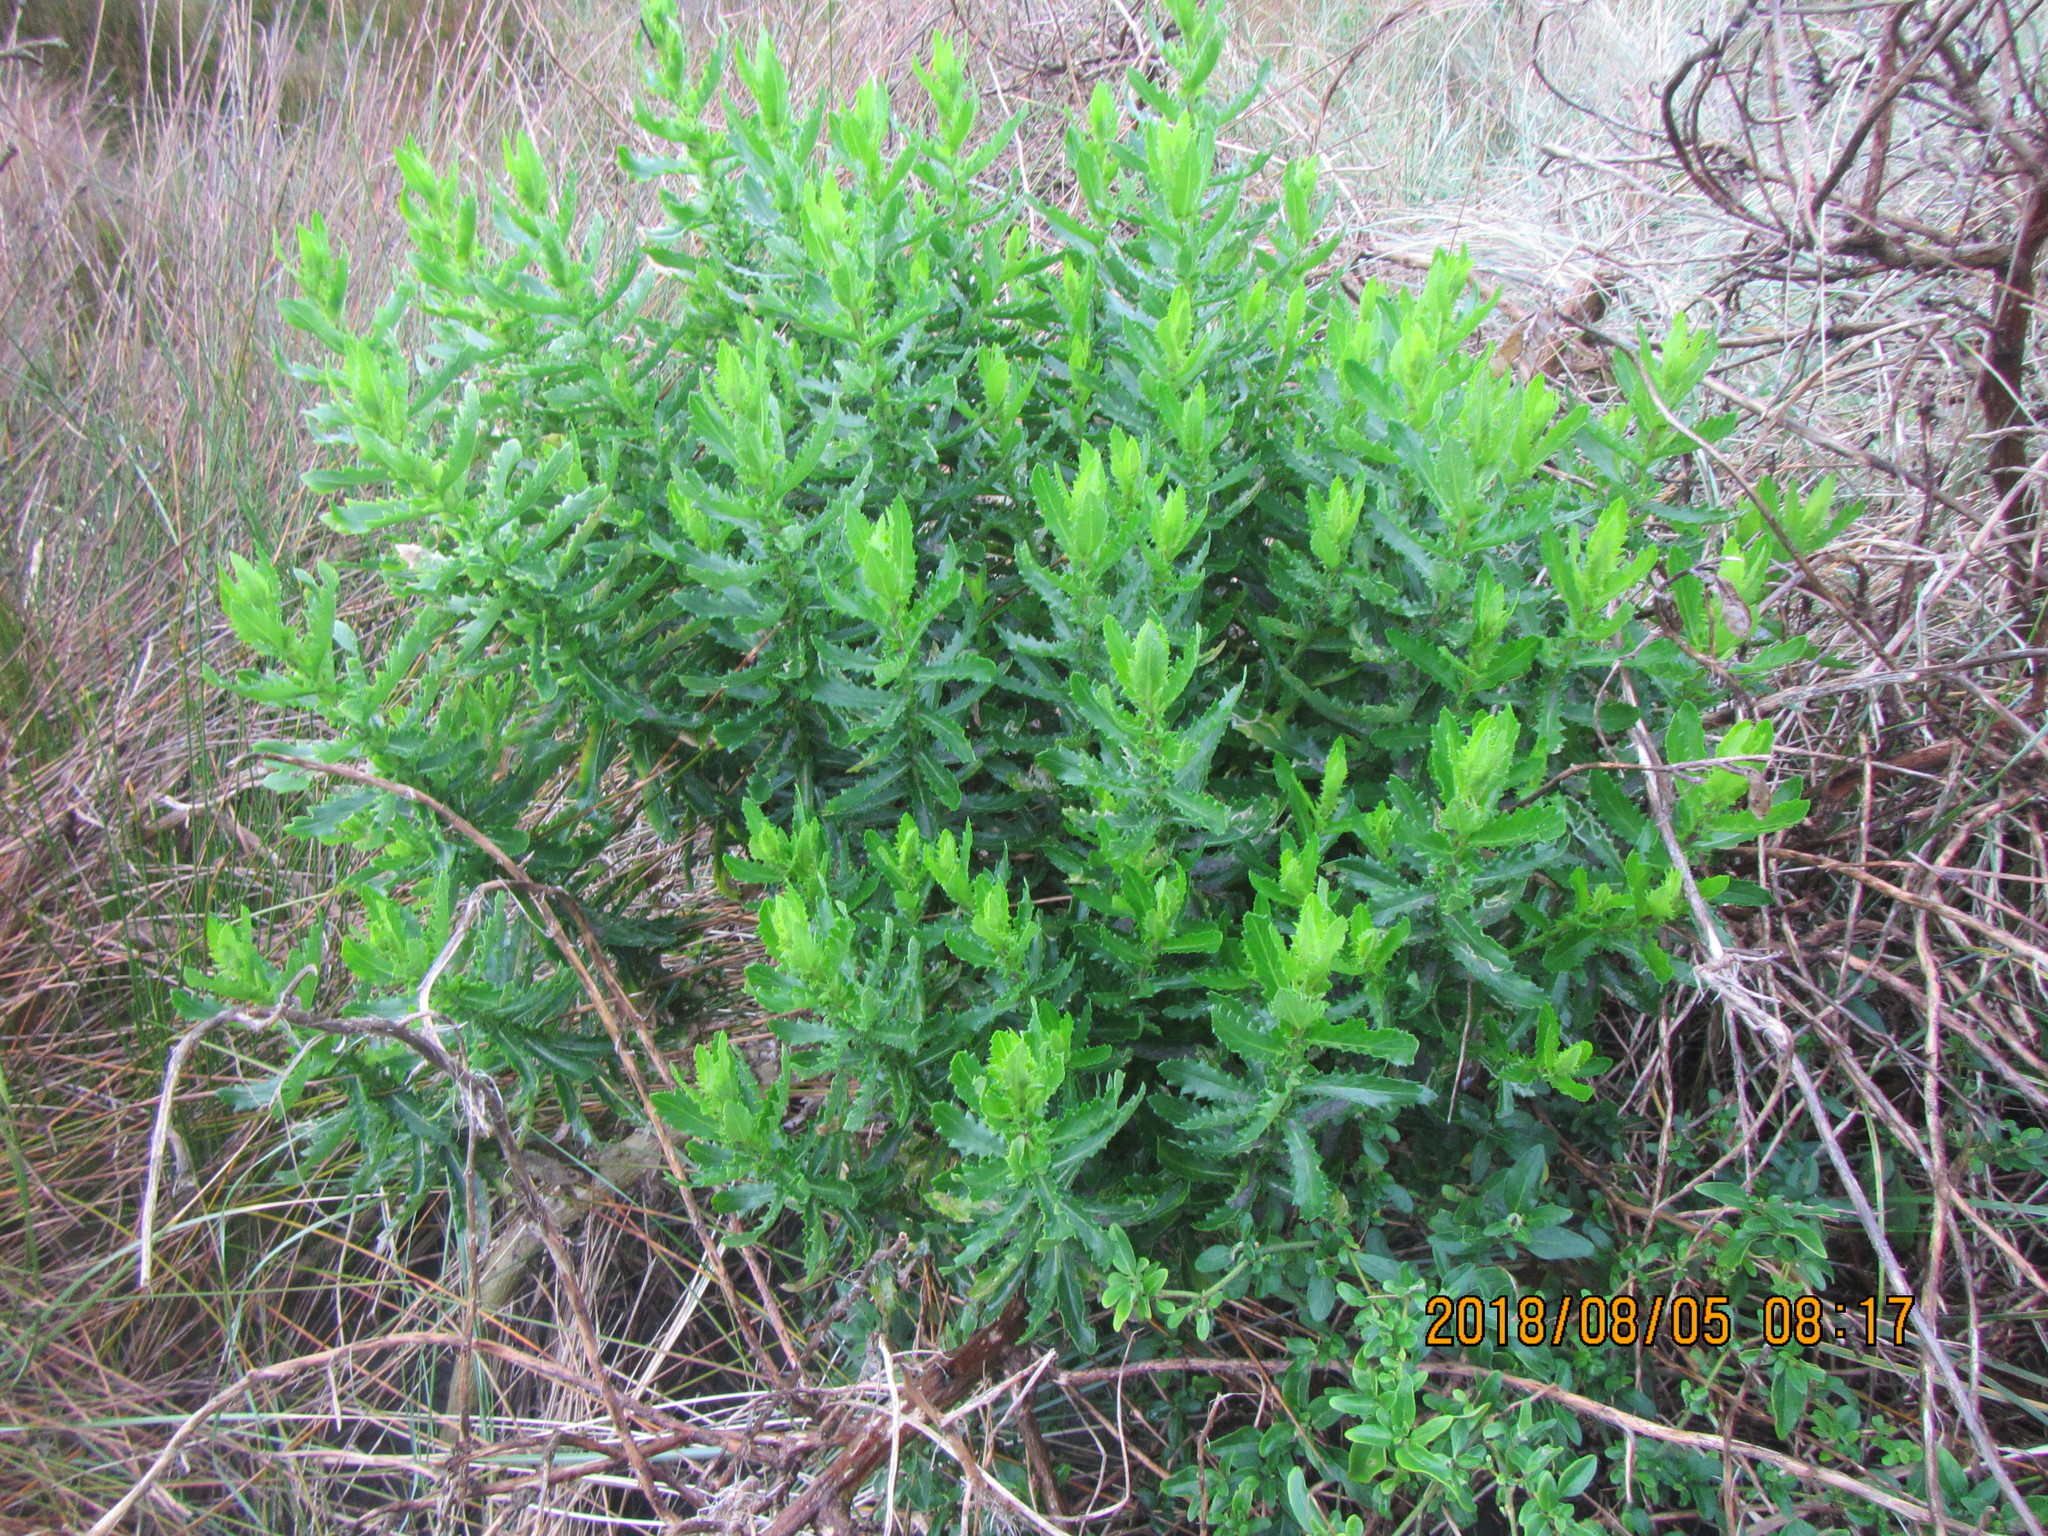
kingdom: Plantae
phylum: Tracheophyta
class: Magnoliopsida
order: Asterales
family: Asteraceae
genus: Senecio
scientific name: Senecio glastifolius
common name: Woad-leaved ragwort
